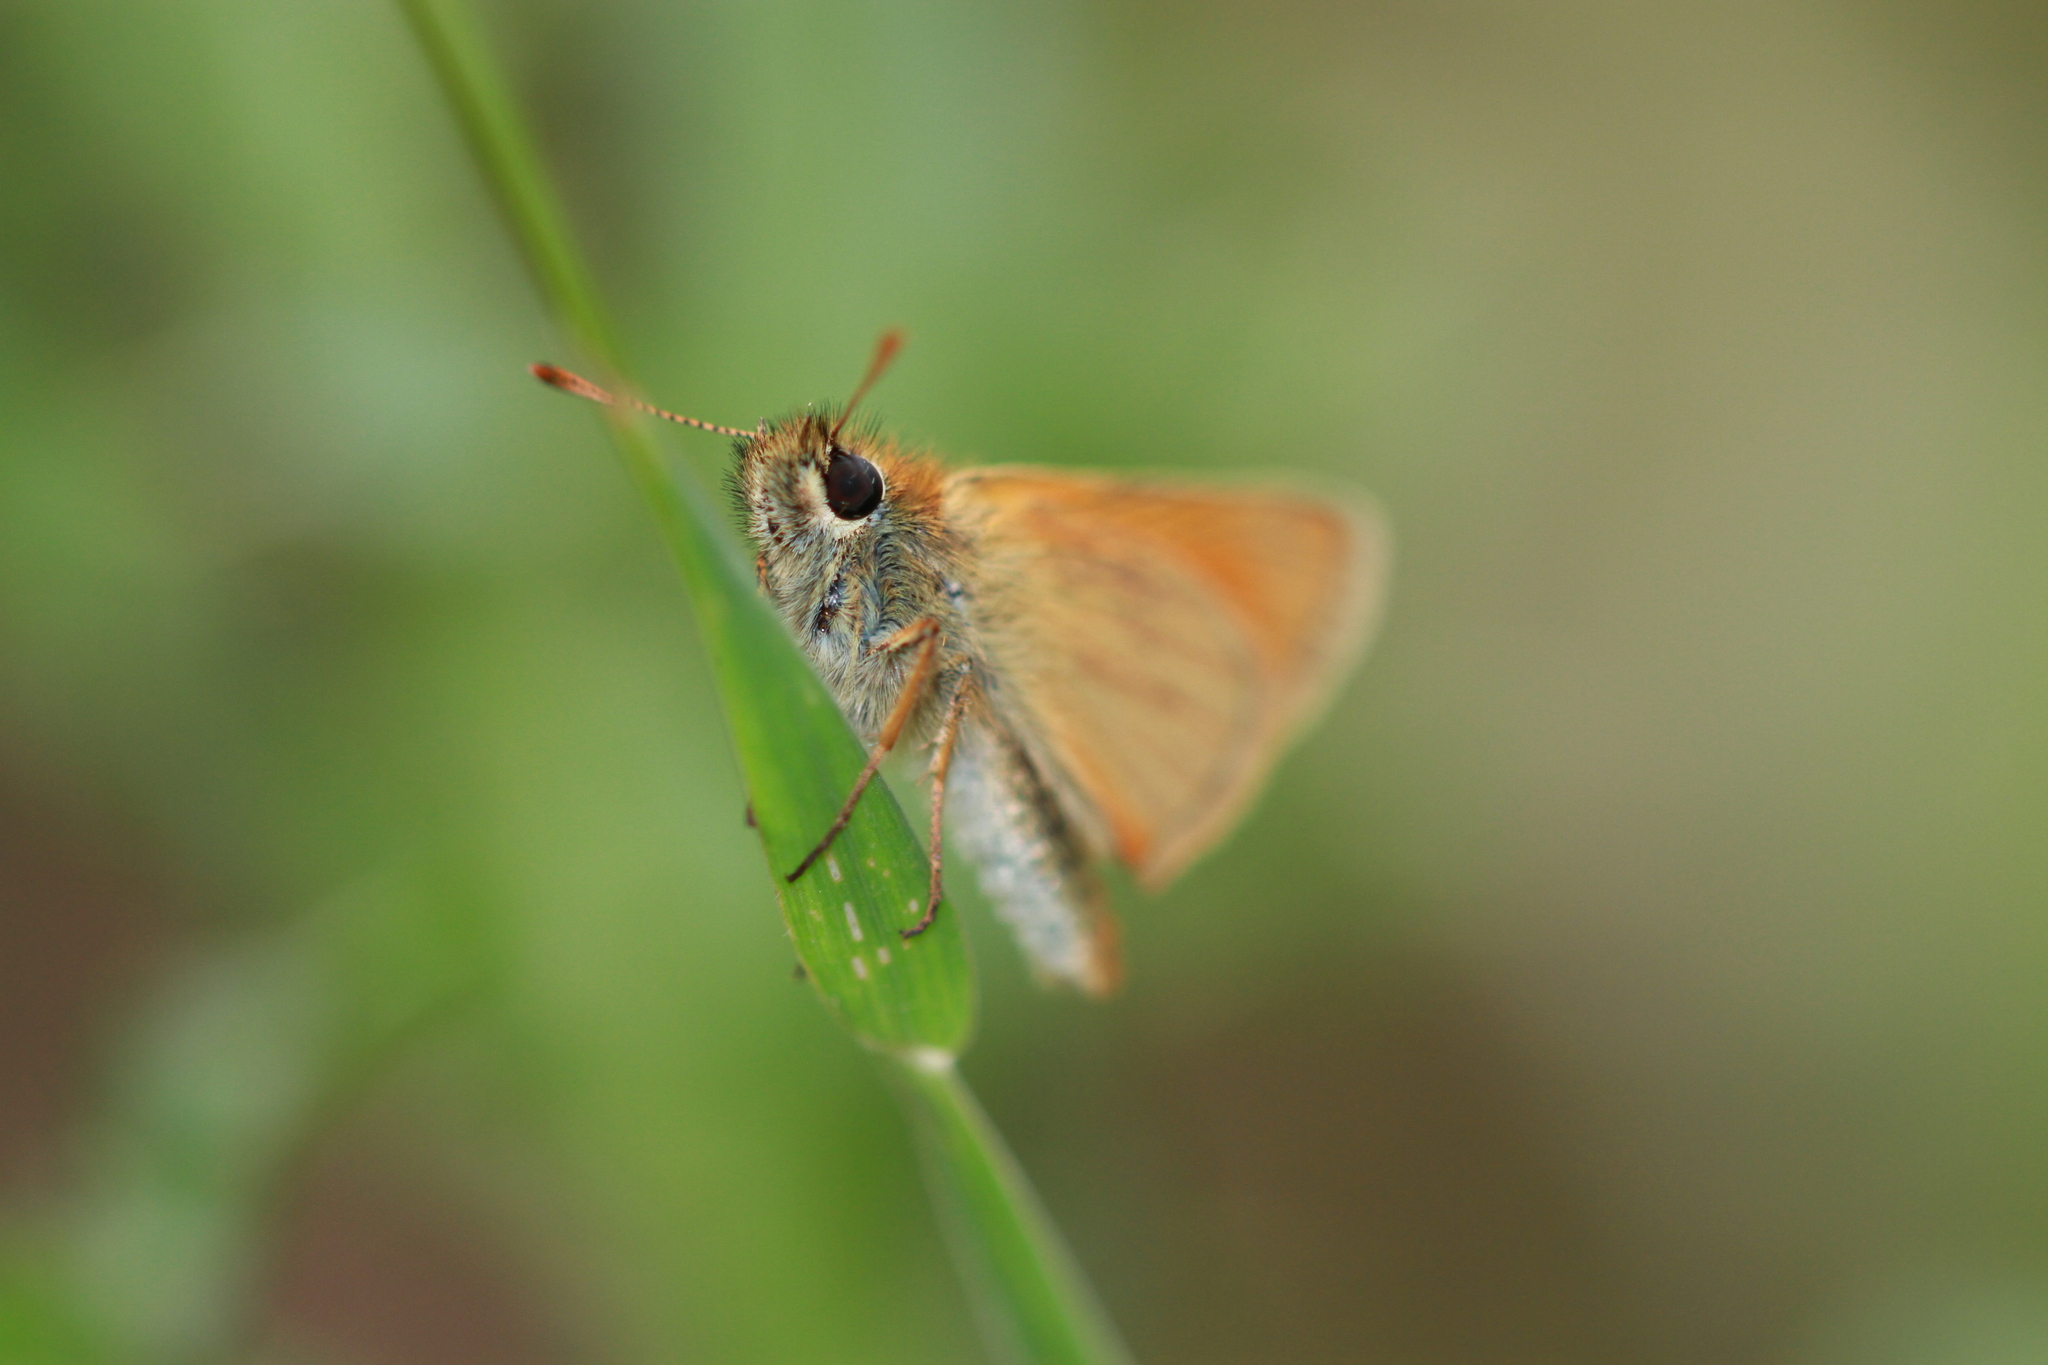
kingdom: Animalia
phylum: Arthropoda
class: Insecta
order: Lepidoptera
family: Hesperiidae
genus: Thymelicus
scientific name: Thymelicus sylvestris
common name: Small skipper
